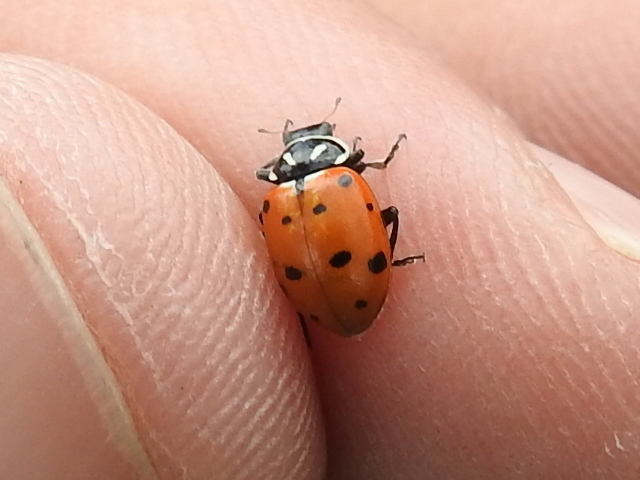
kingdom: Animalia
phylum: Arthropoda
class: Insecta
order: Coleoptera
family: Coccinellidae
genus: Hippodamia
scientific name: Hippodamia convergens
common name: Convergent lady beetle
